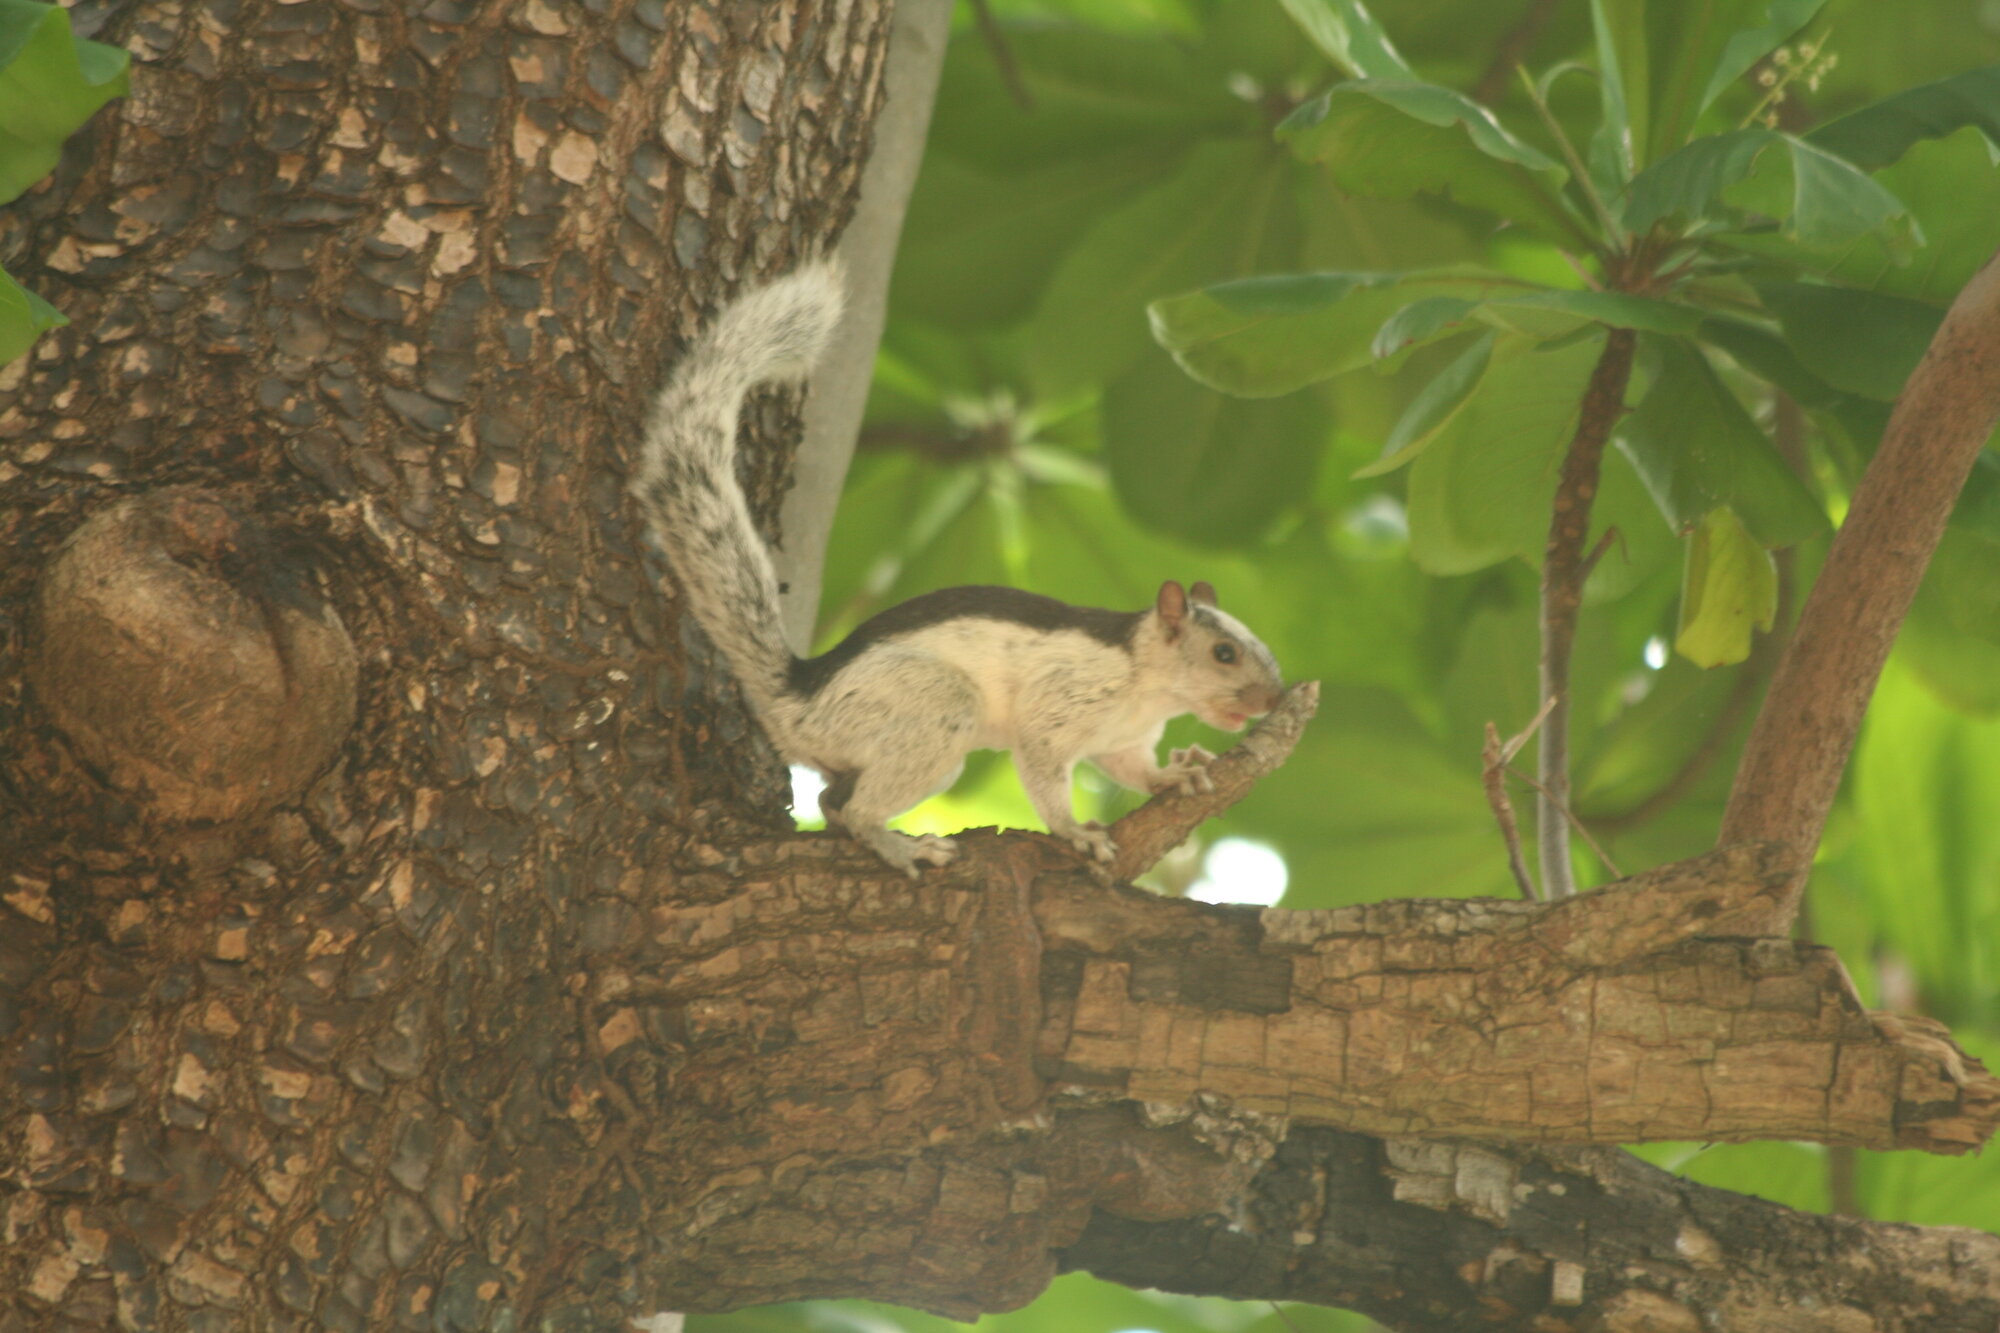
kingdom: Animalia
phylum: Chordata
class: Mammalia
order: Rodentia
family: Sciuridae
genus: Sciurus
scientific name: Sciurus variegatoides
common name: Variegated squirrel
